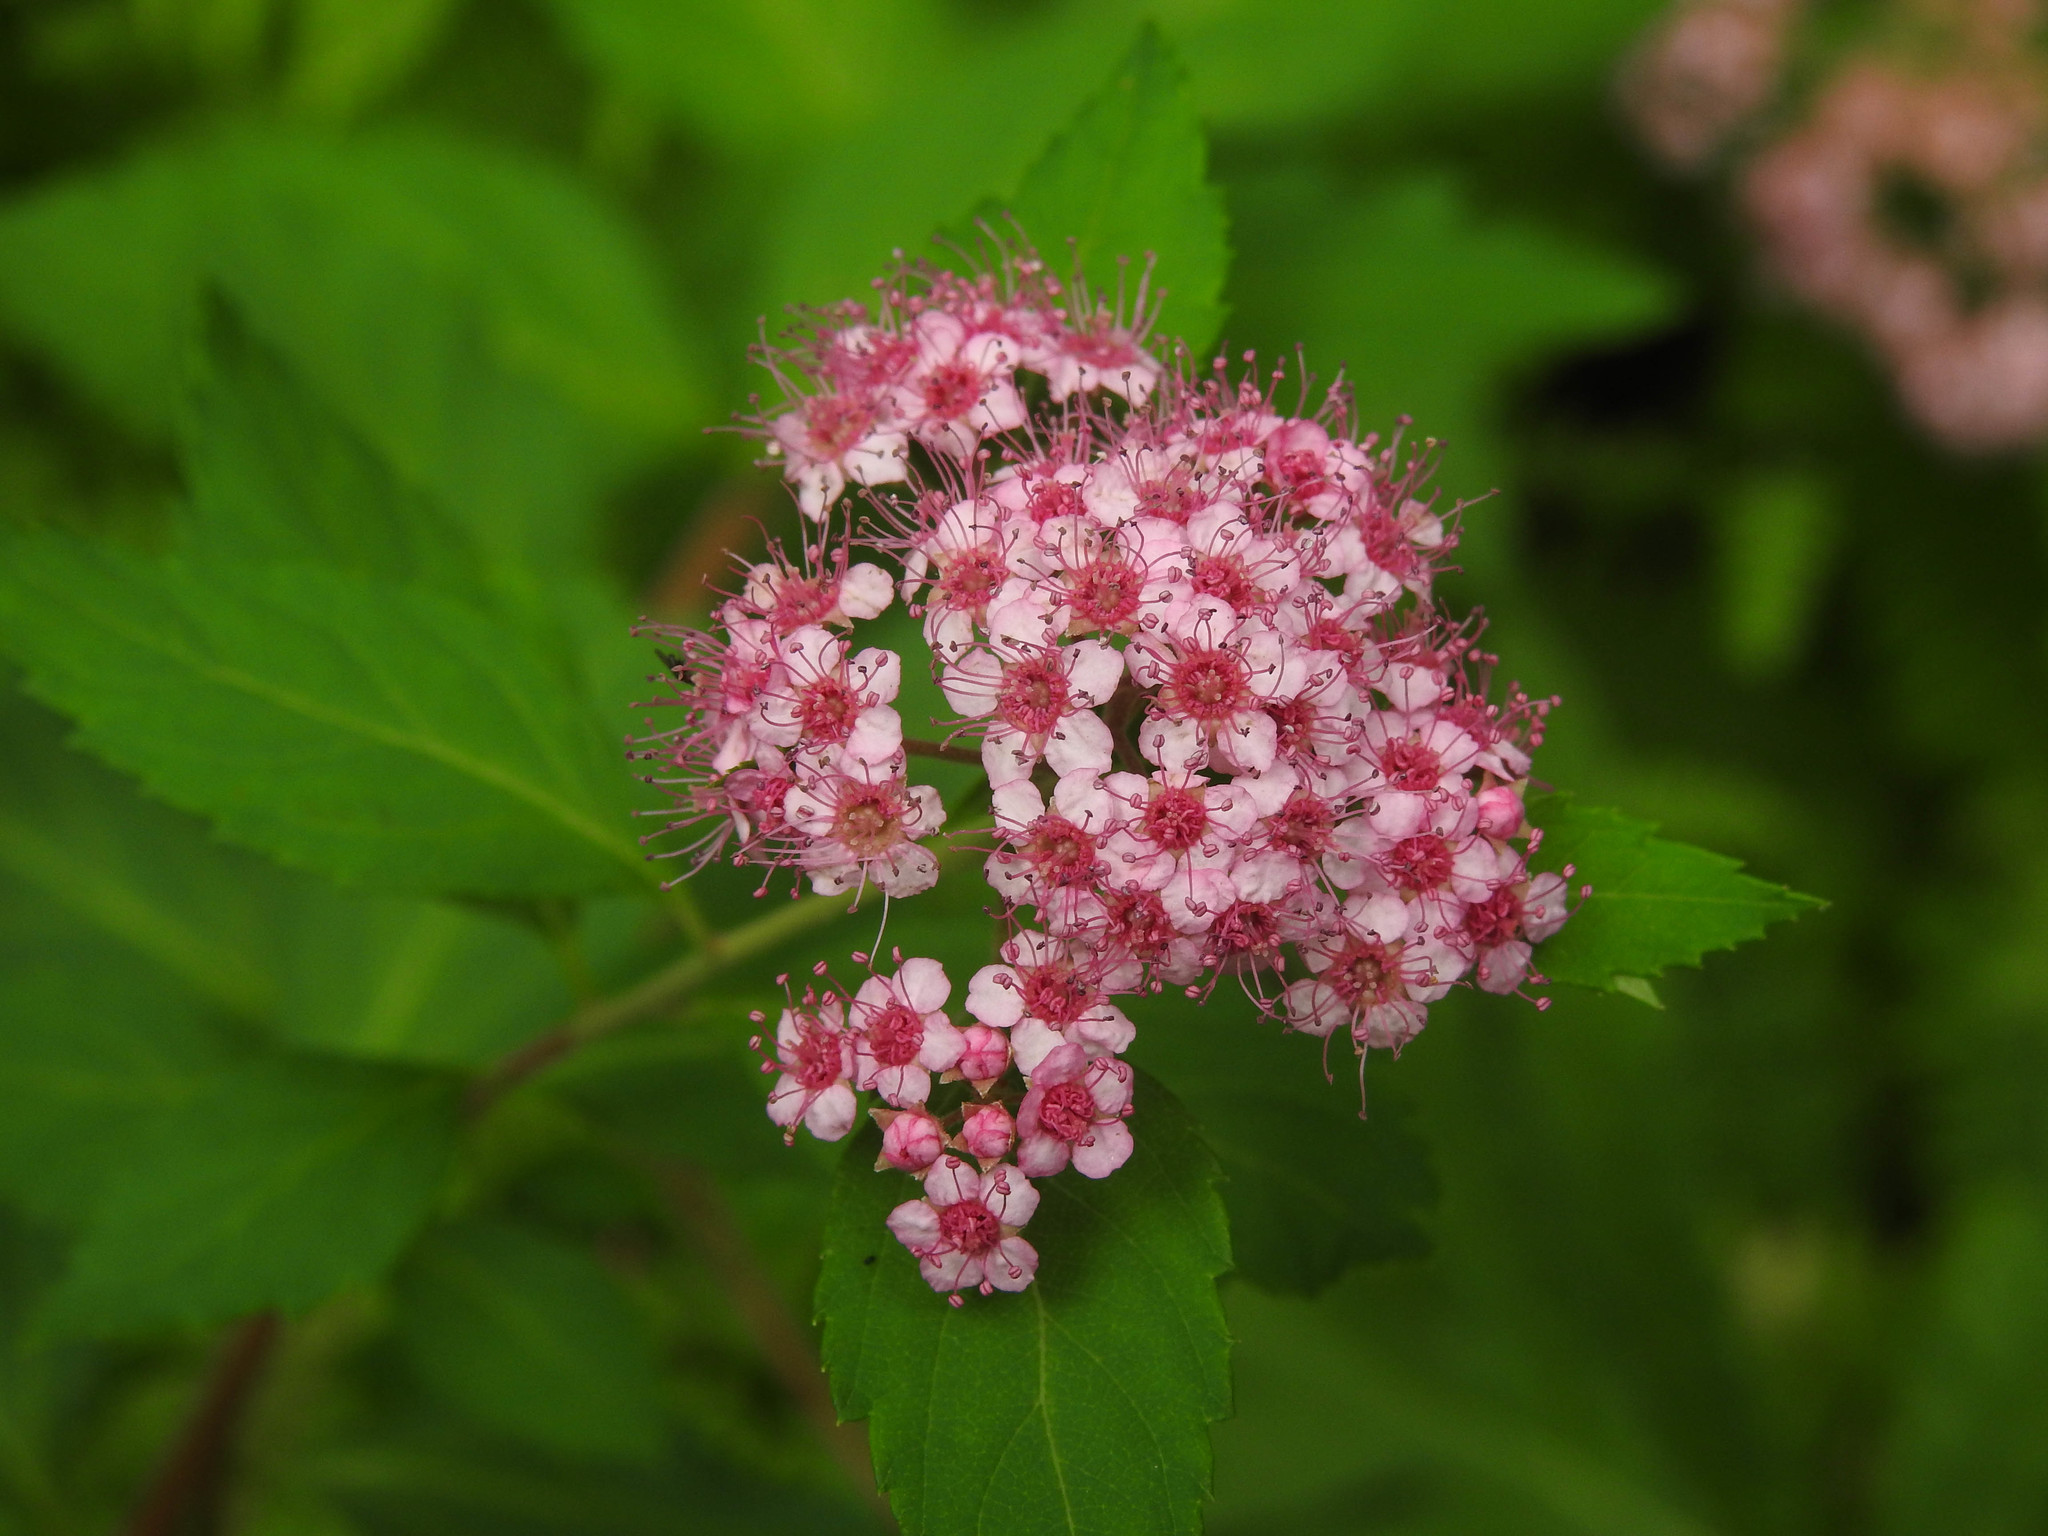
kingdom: Plantae
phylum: Tracheophyta
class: Magnoliopsida
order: Rosales
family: Rosaceae
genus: Spiraea
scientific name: Spiraea japonica
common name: Japanese spiraea
